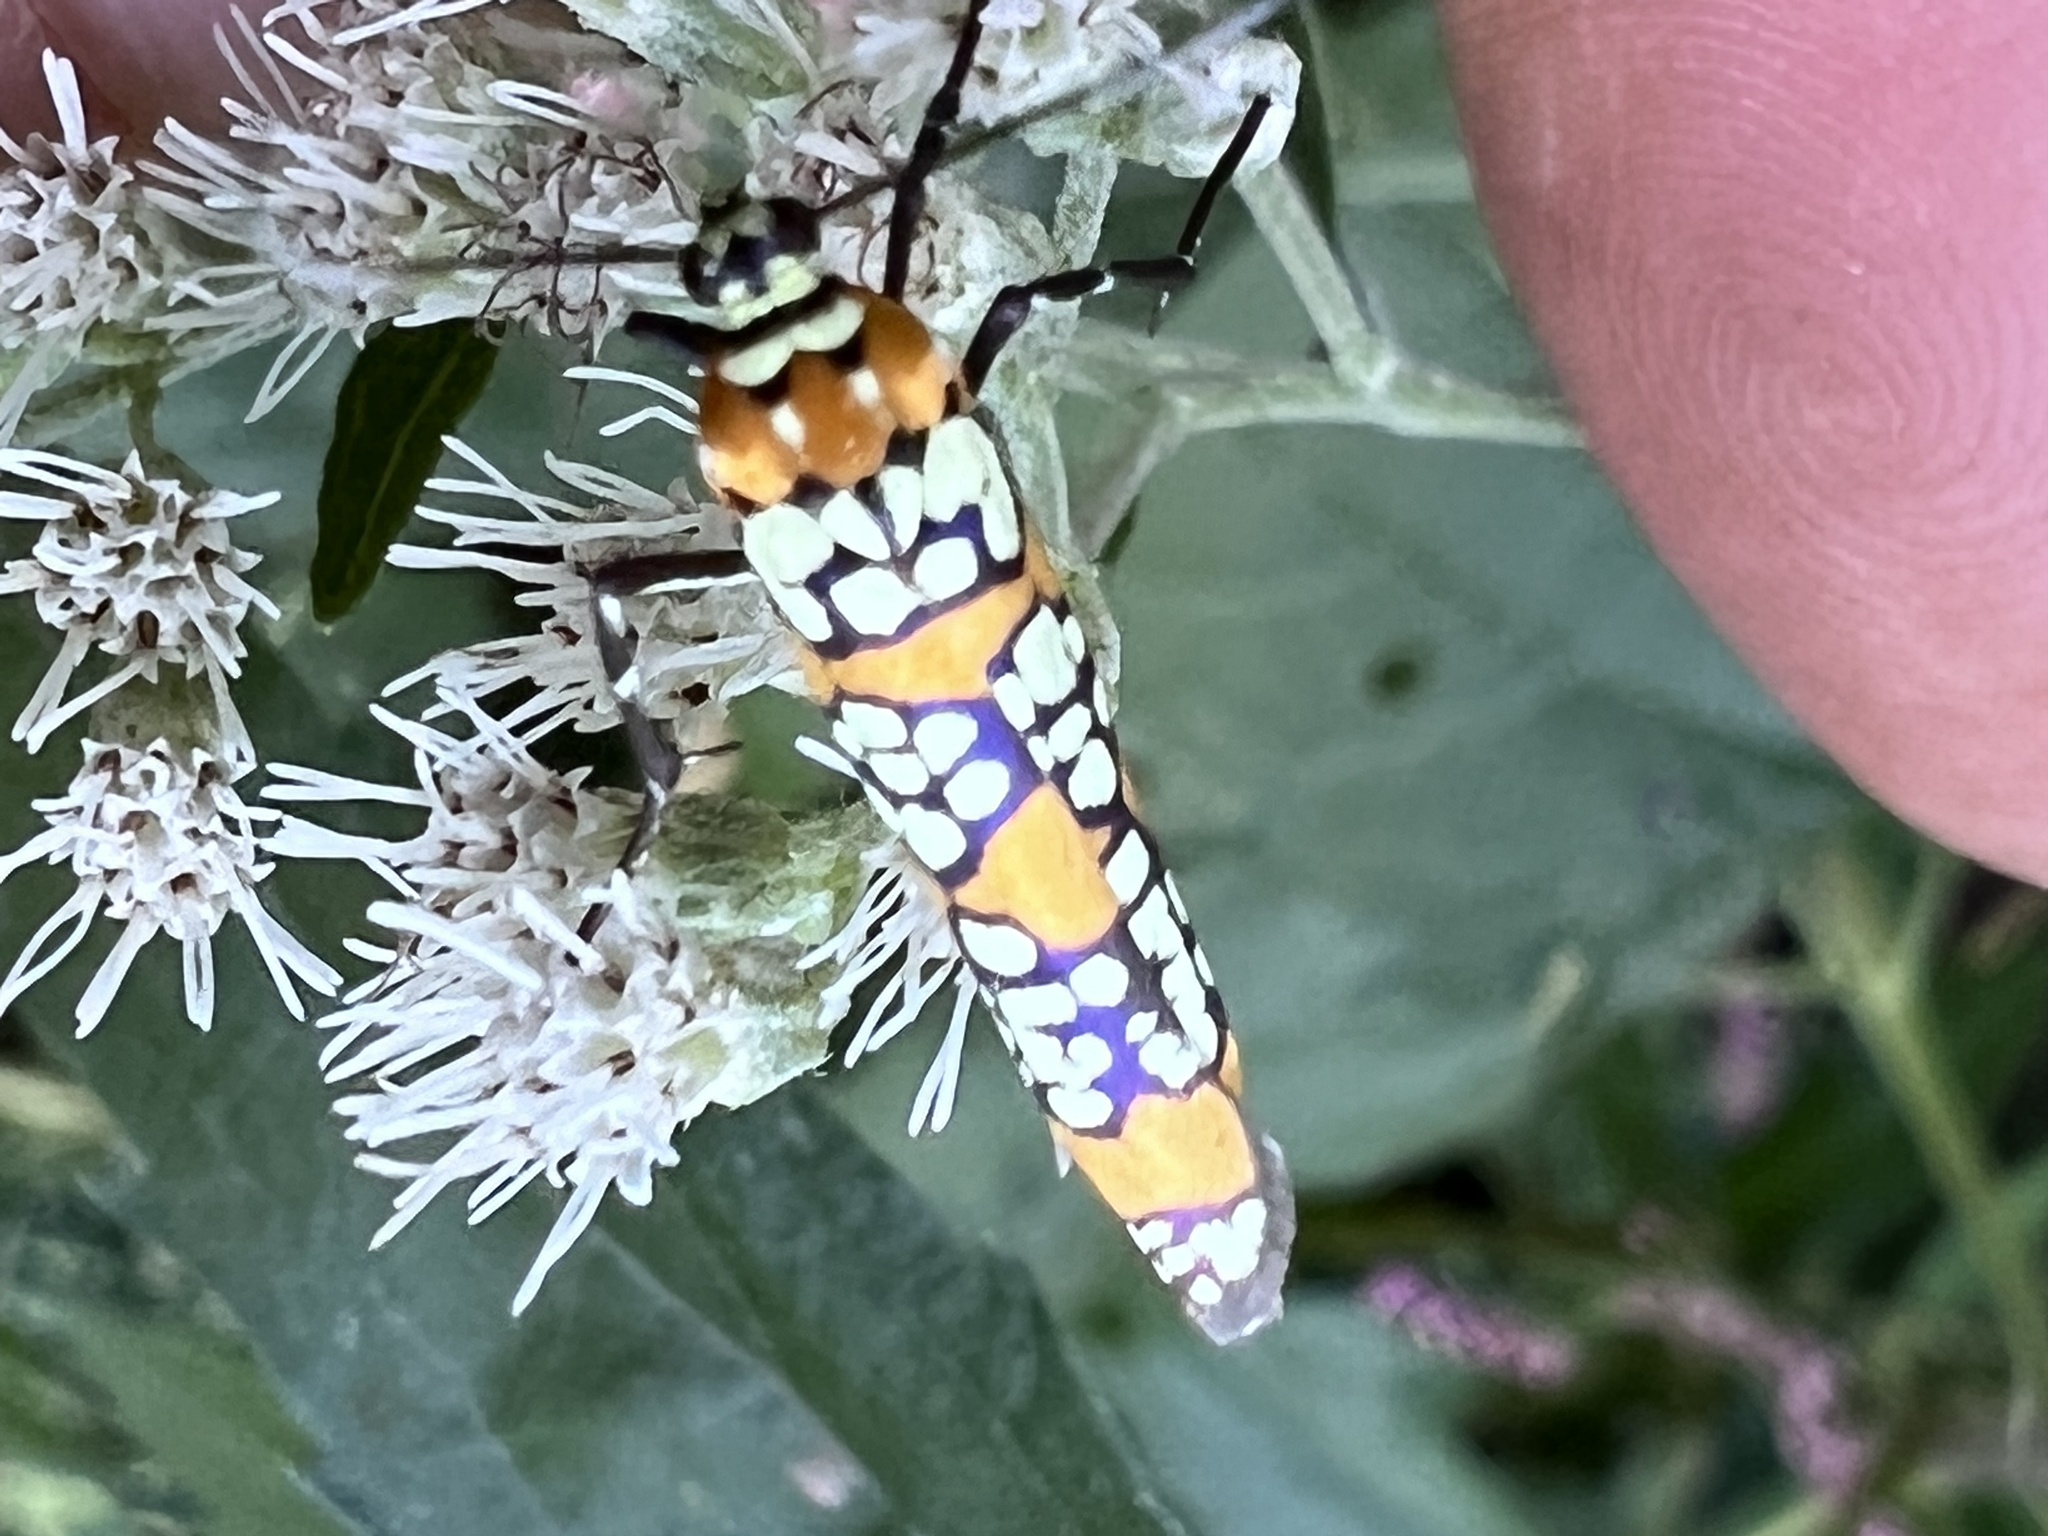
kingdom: Animalia
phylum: Arthropoda
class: Insecta
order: Lepidoptera
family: Attevidae
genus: Atteva
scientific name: Atteva punctella
